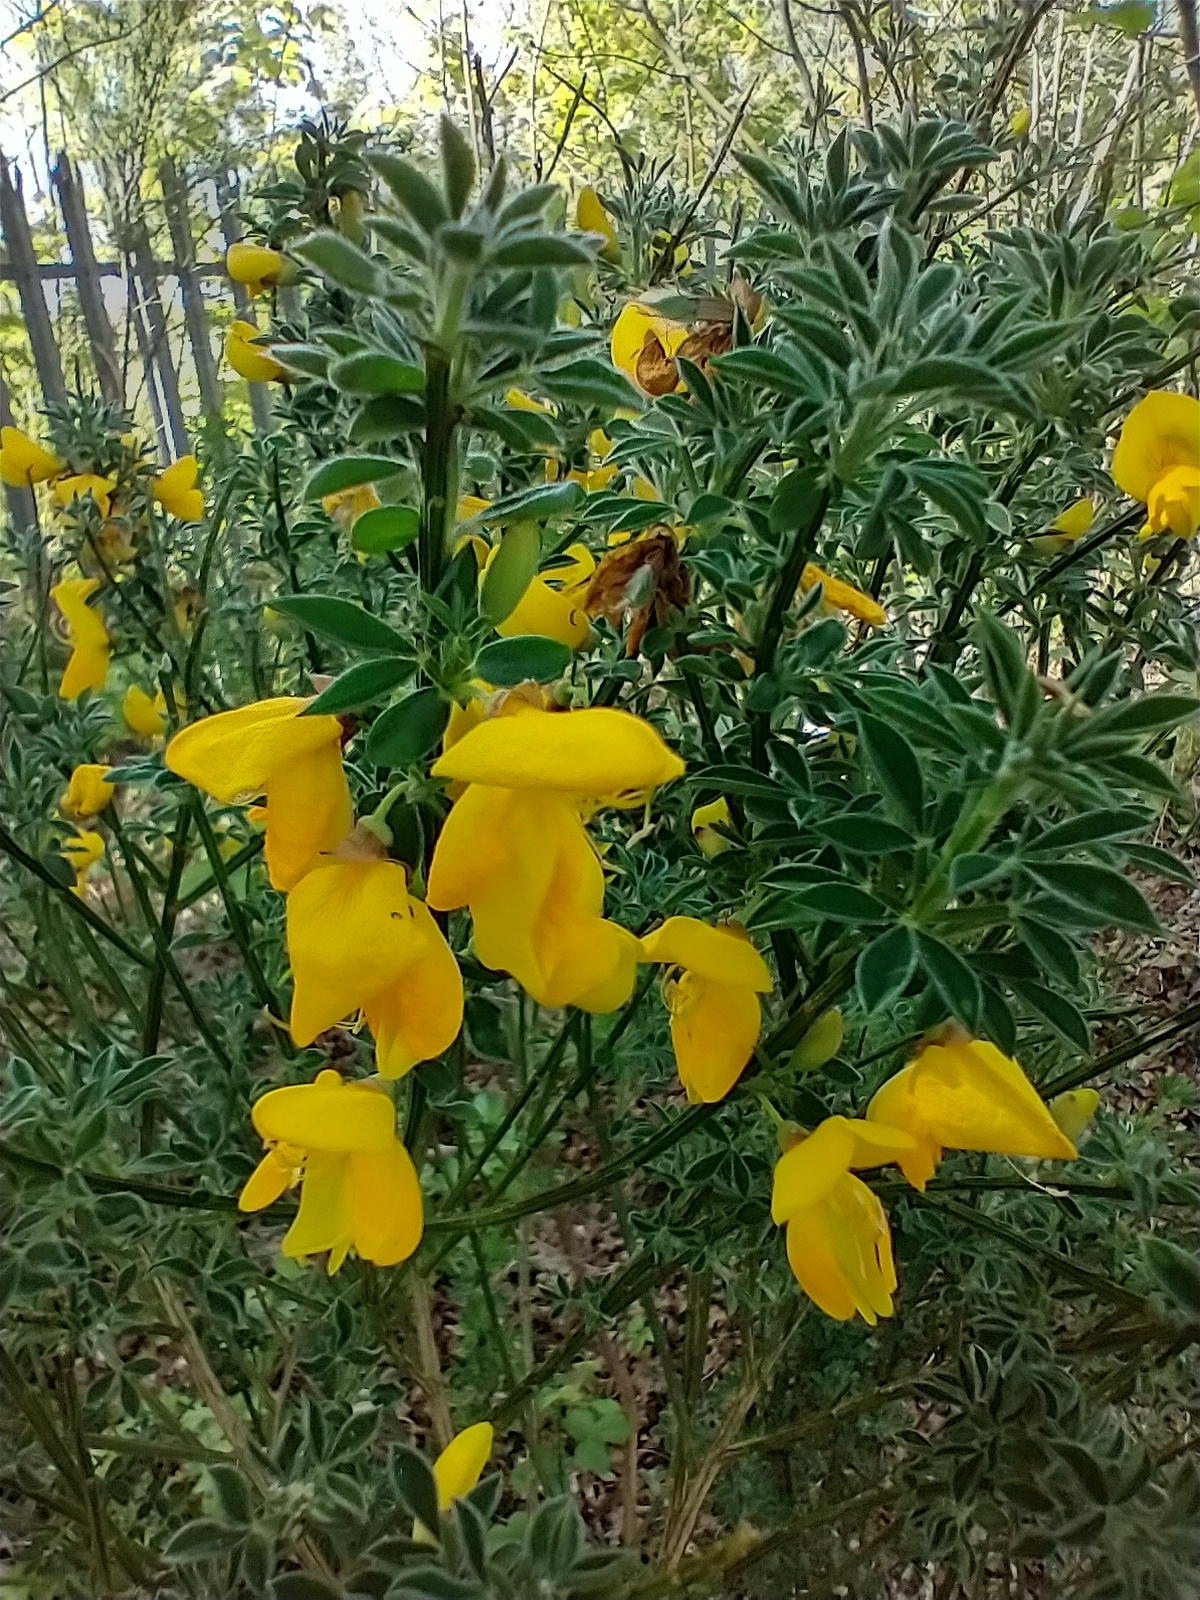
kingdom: Plantae
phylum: Tracheophyta
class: Magnoliopsida
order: Fabales
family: Fabaceae
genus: Cytisus
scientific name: Cytisus scoparius
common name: Scotch broom
